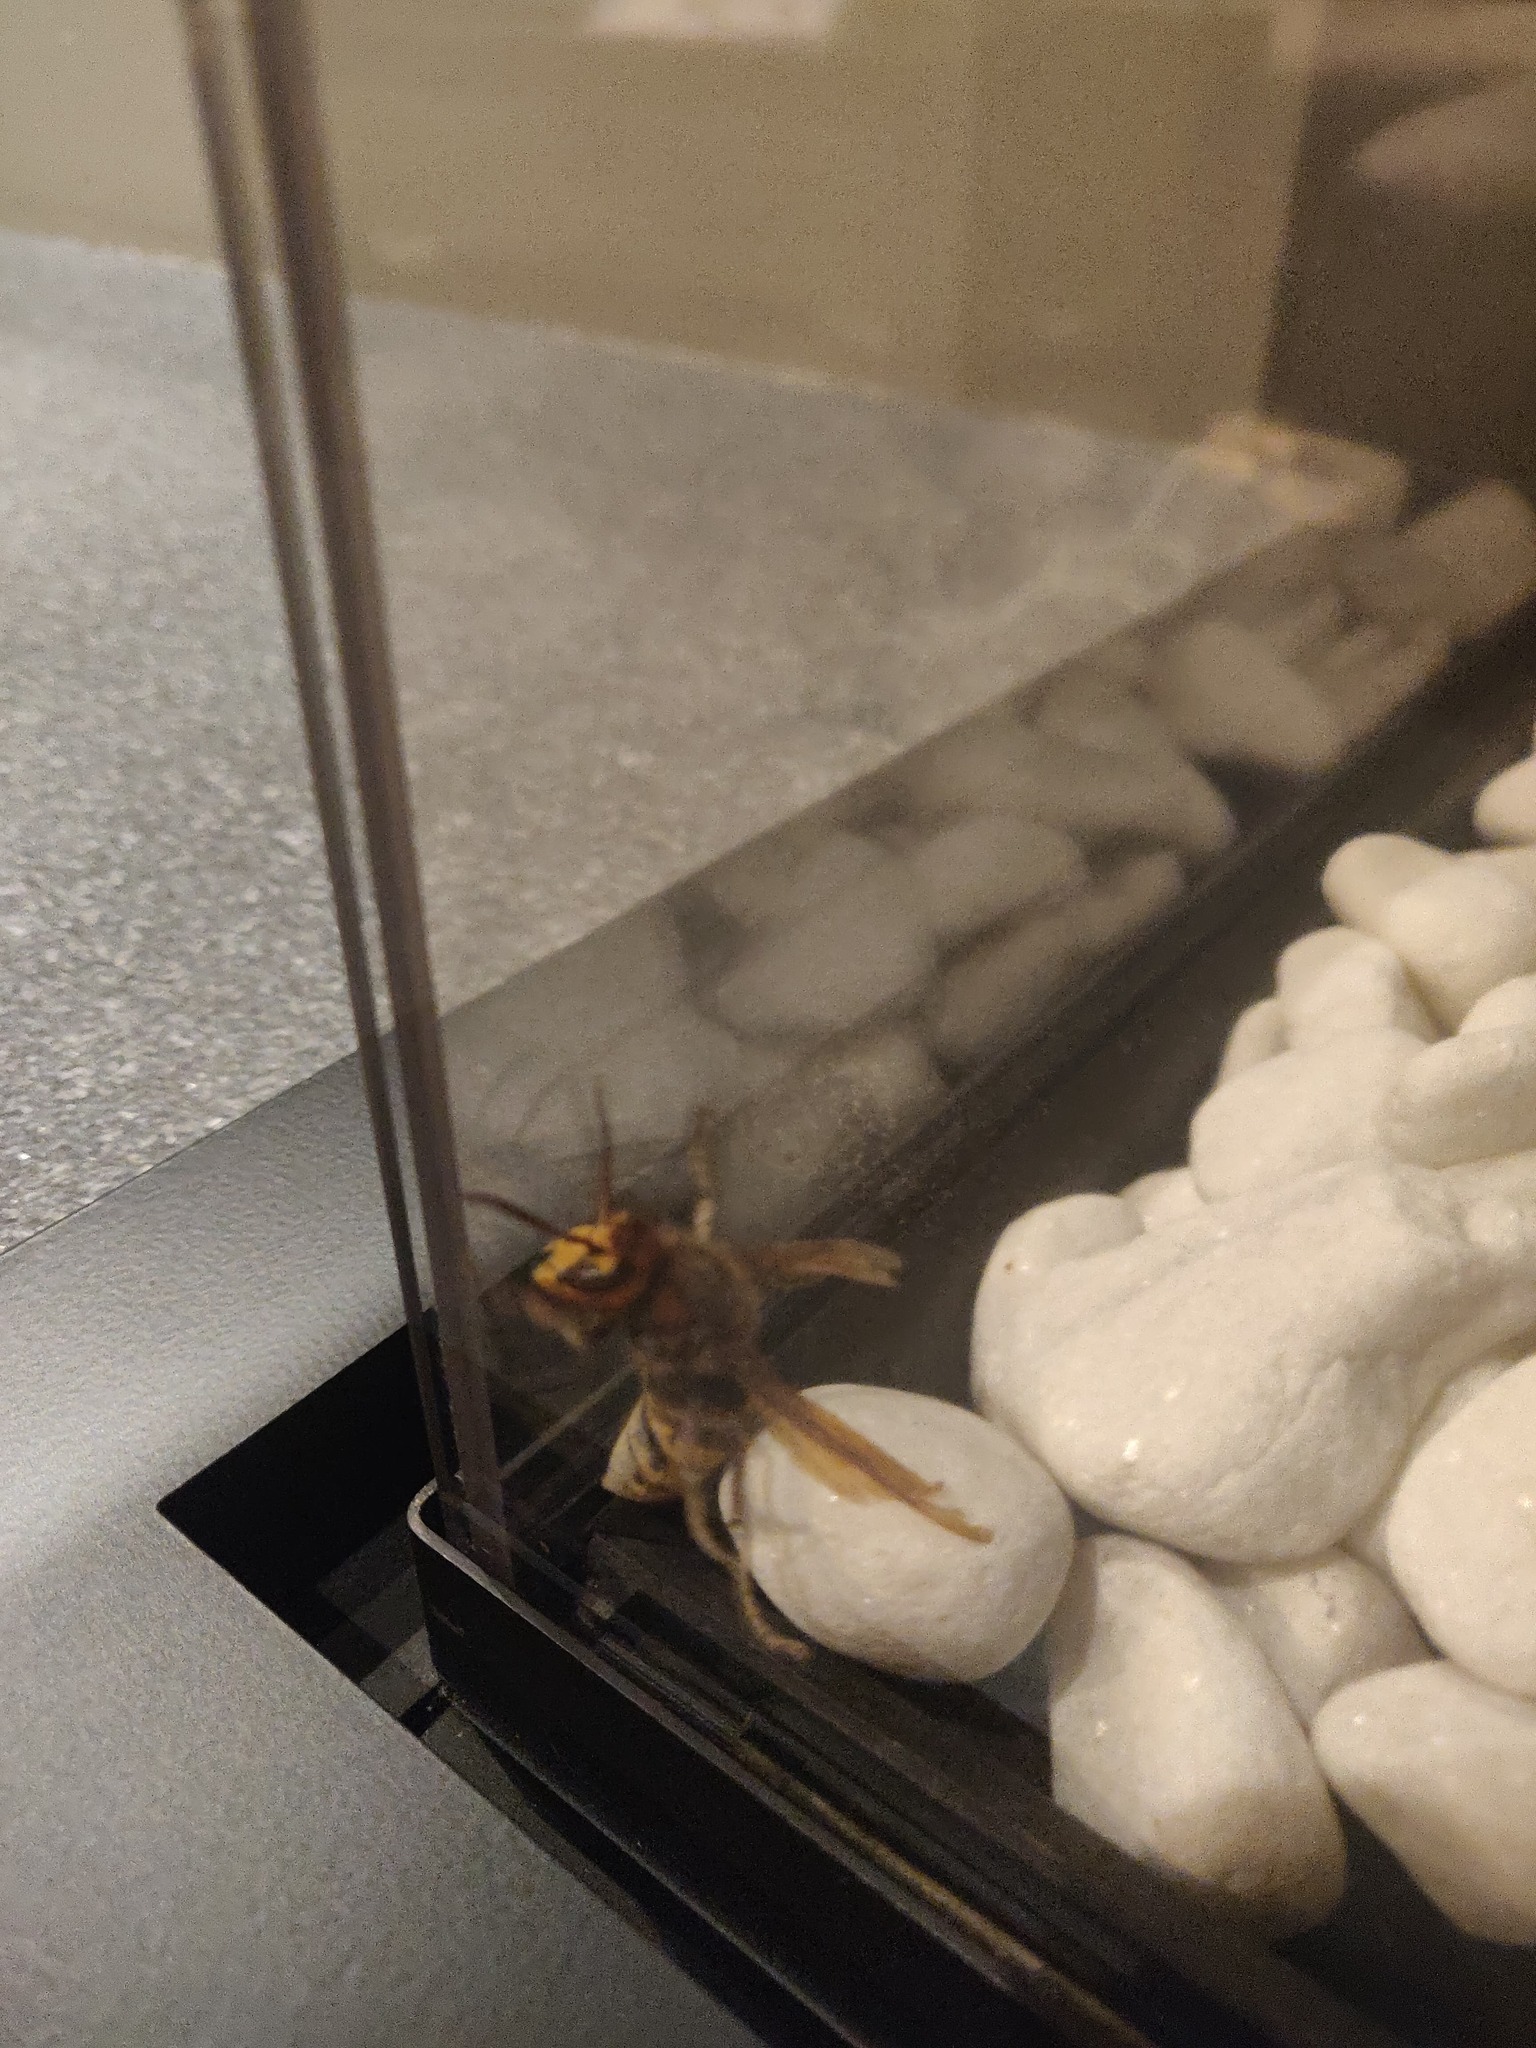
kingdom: Animalia
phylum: Arthropoda
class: Insecta
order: Hymenoptera
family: Vespidae
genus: Vespa
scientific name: Vespa crabro
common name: Hornet
